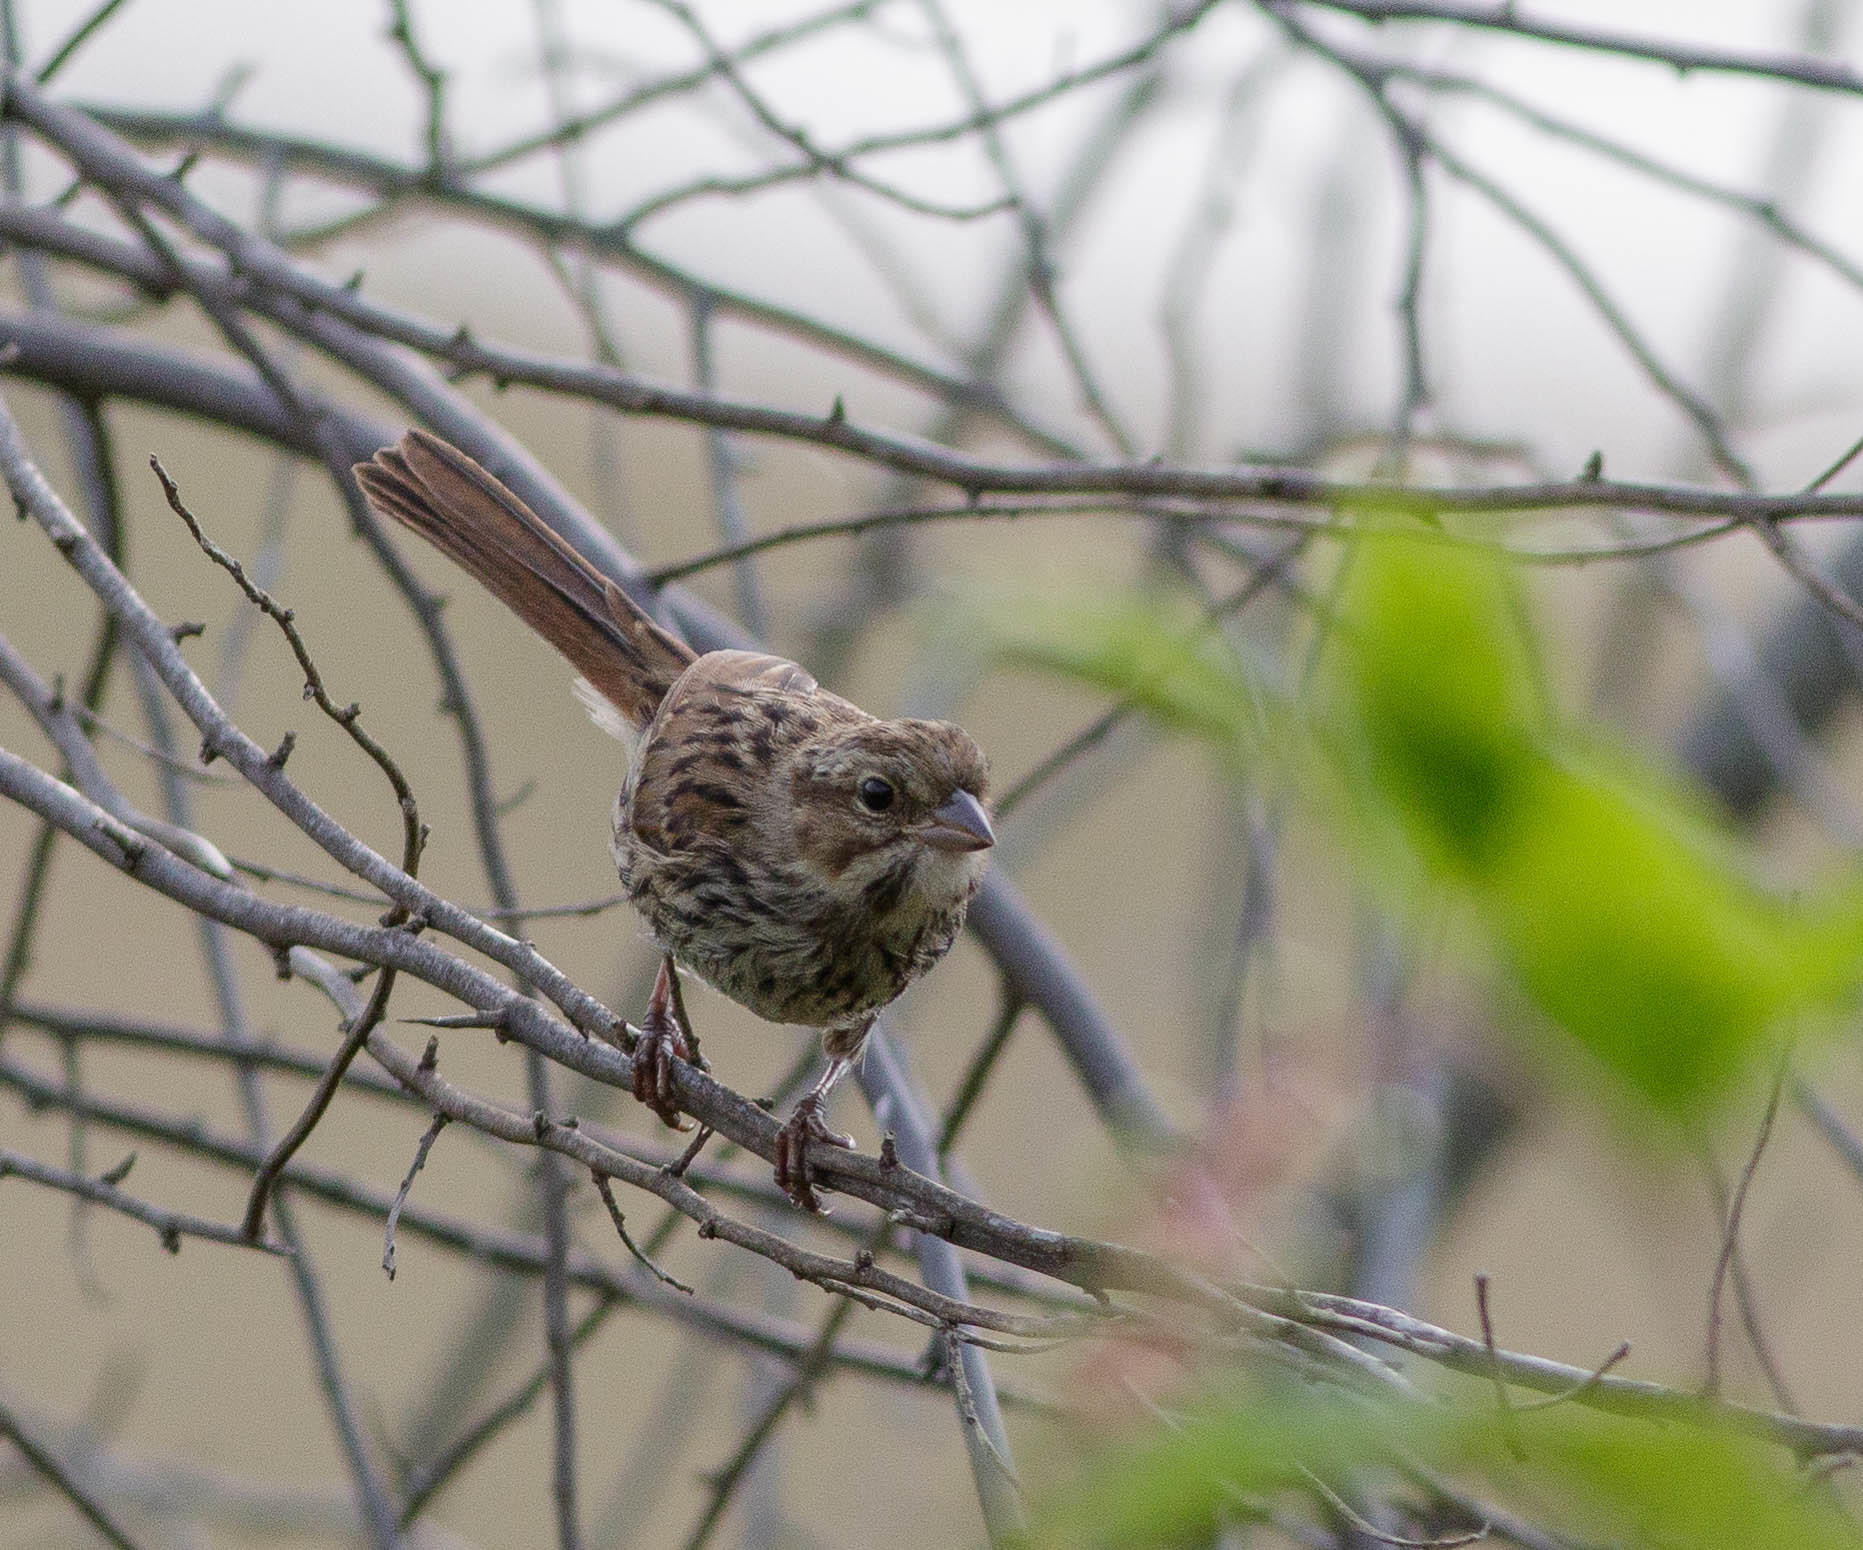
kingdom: Animalia
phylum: Chordata
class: Aves
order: Passeriformes
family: Passerellidae
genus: Melospiza
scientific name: Melospiza melodia
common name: Song sparrow
